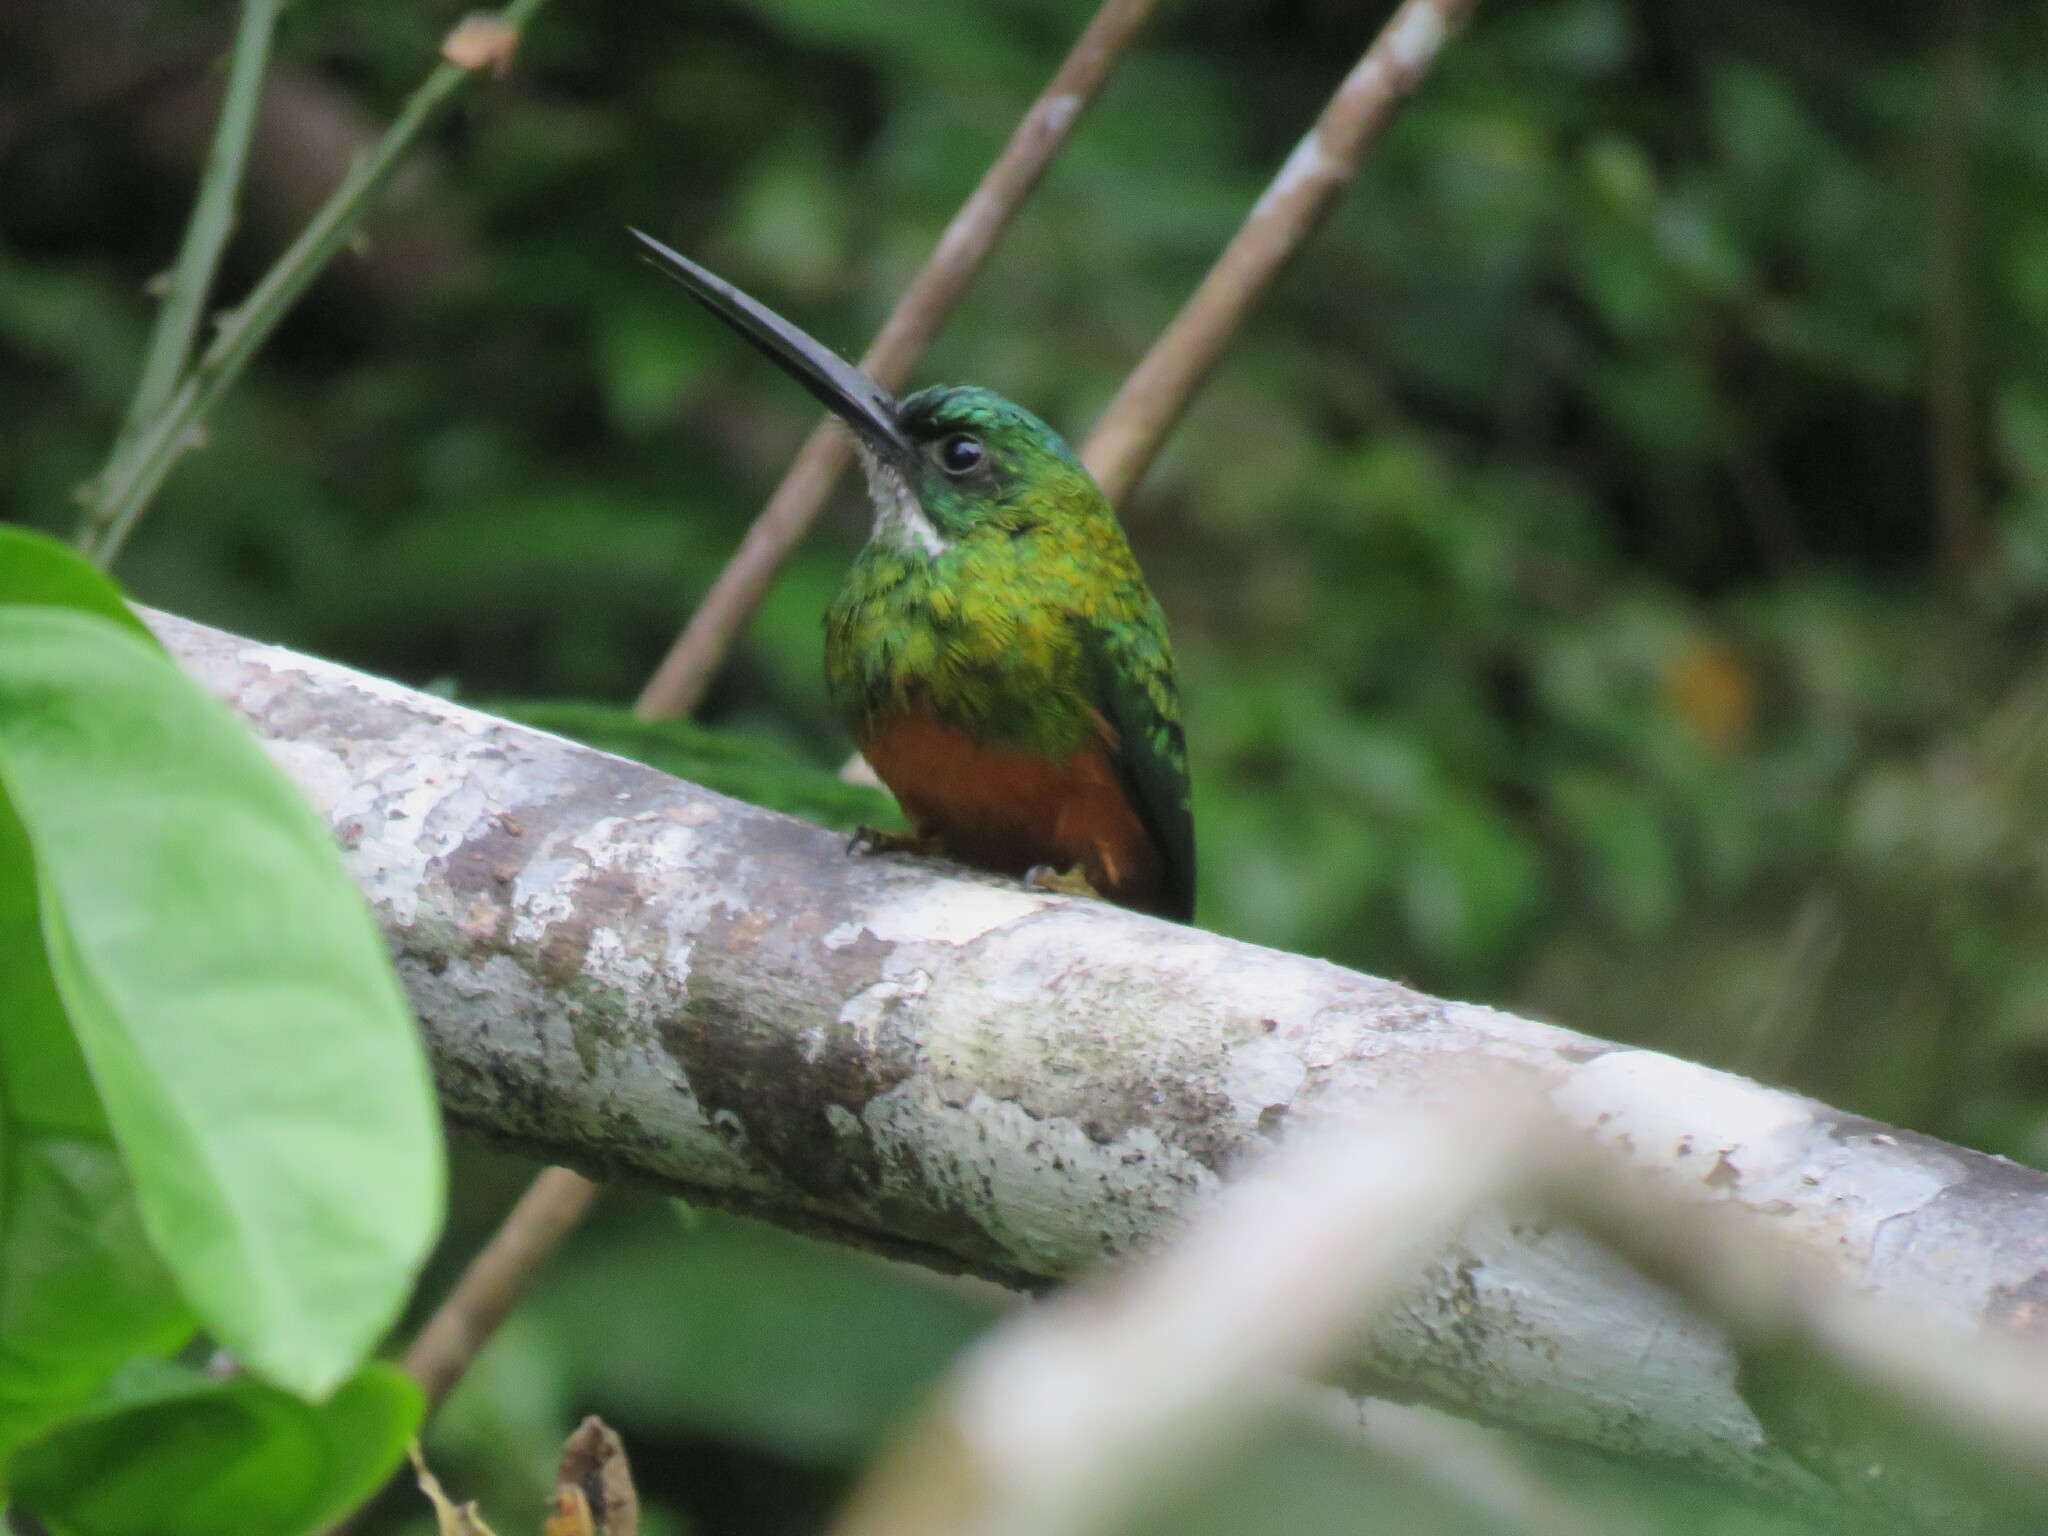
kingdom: Animalia
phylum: Chordata
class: Aves
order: Piciformes
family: Galbulidae
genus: Galbula
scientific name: Galbula ruficauda
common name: Rufous-tailed jacamar
